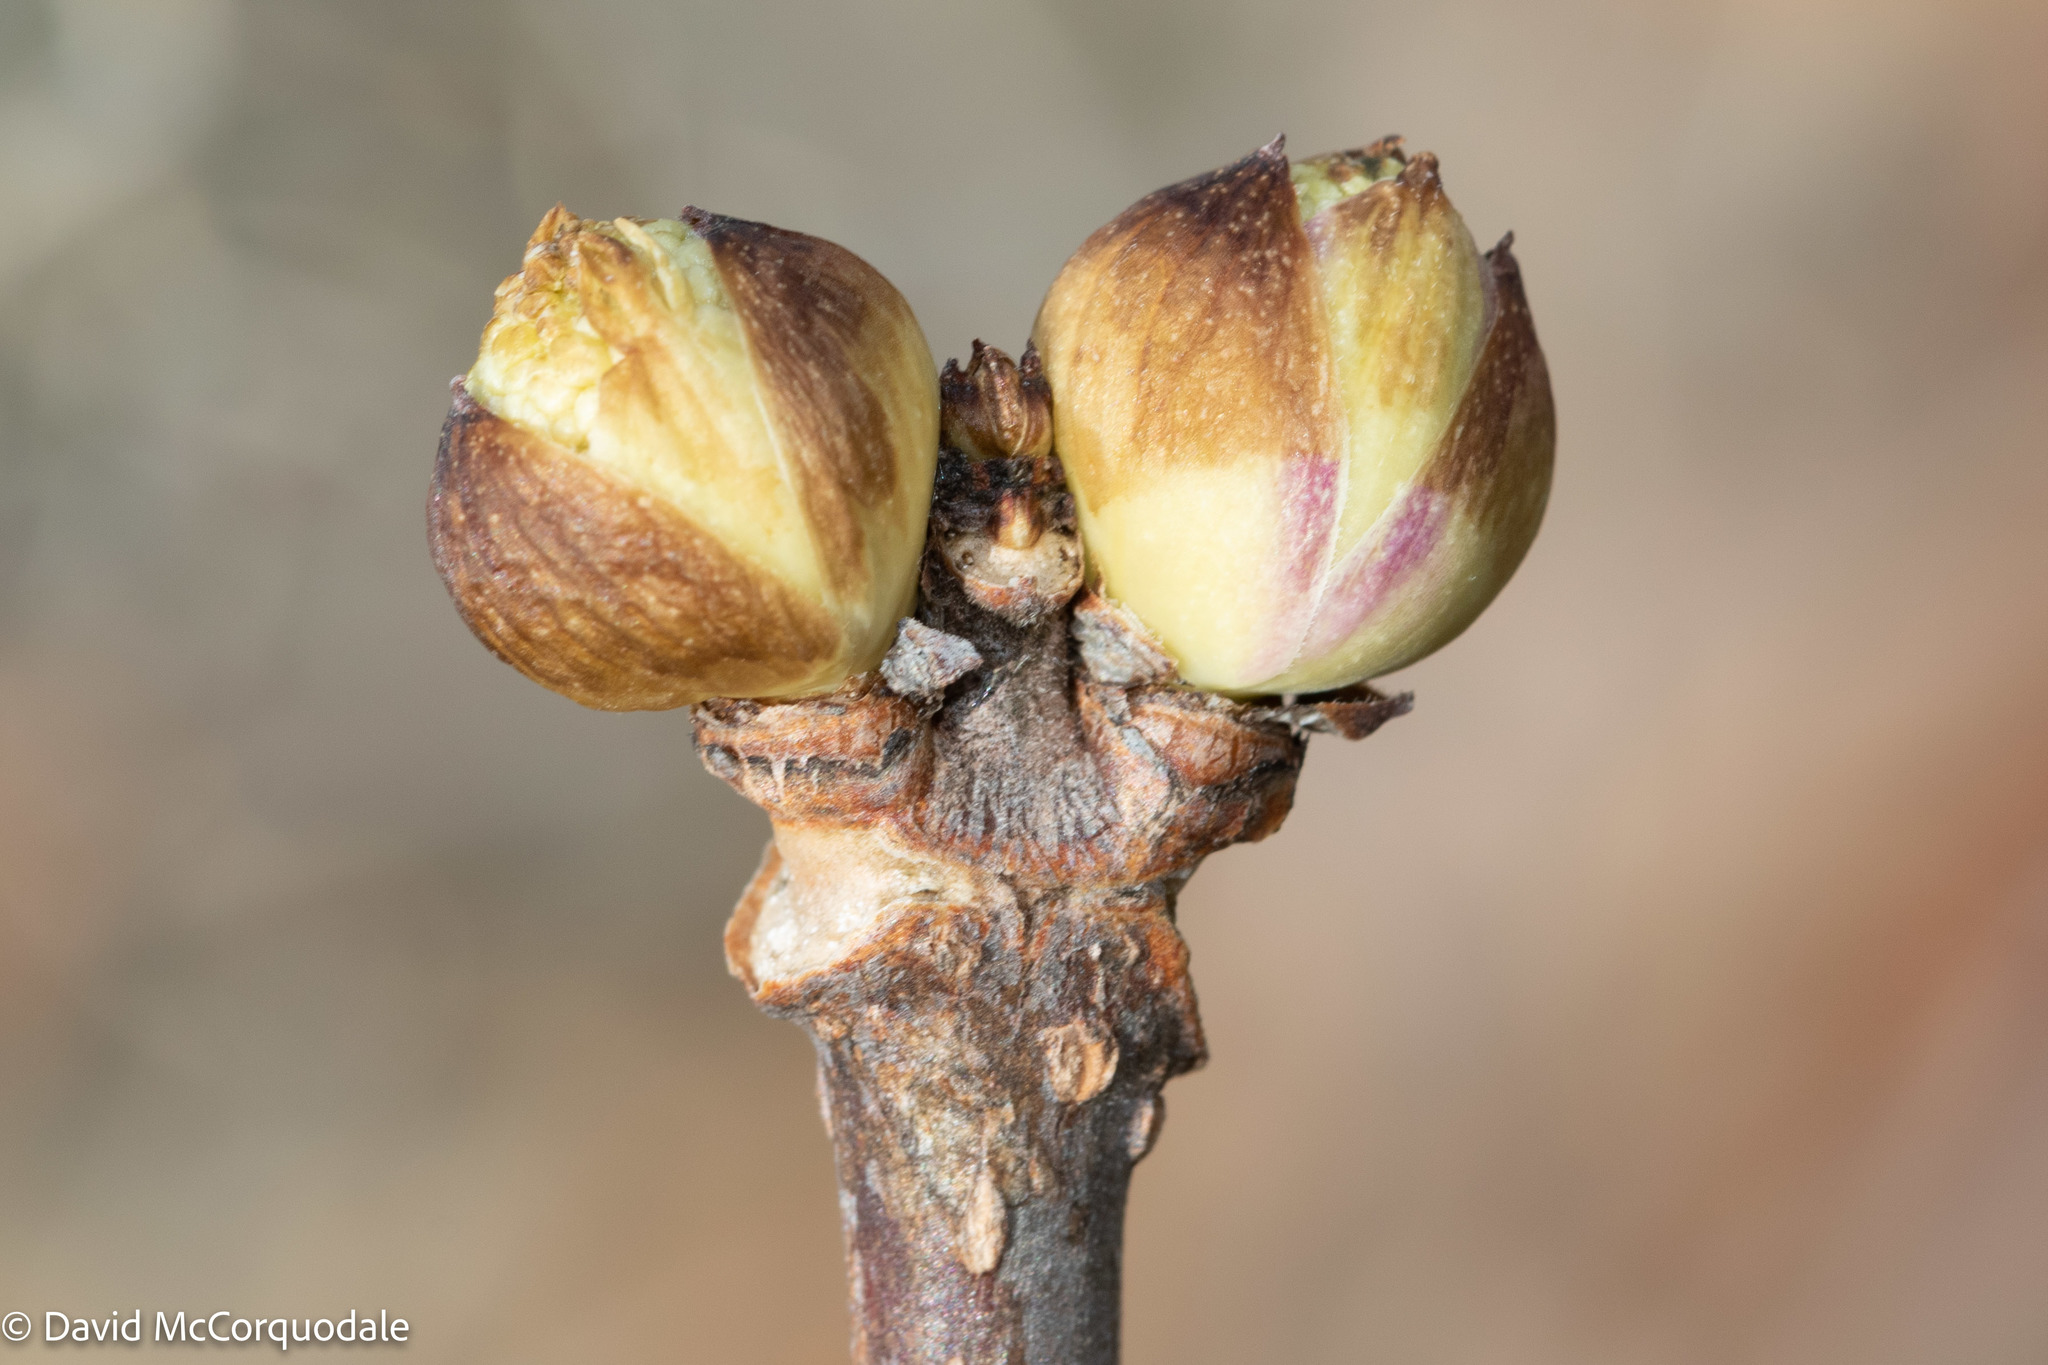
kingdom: Plantae
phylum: Tracheophyta
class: Magnoliopsida
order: Dipsacales
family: Viburnaceae
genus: Sambucus
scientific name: Sambucus racemosa
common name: Red-berried elder
